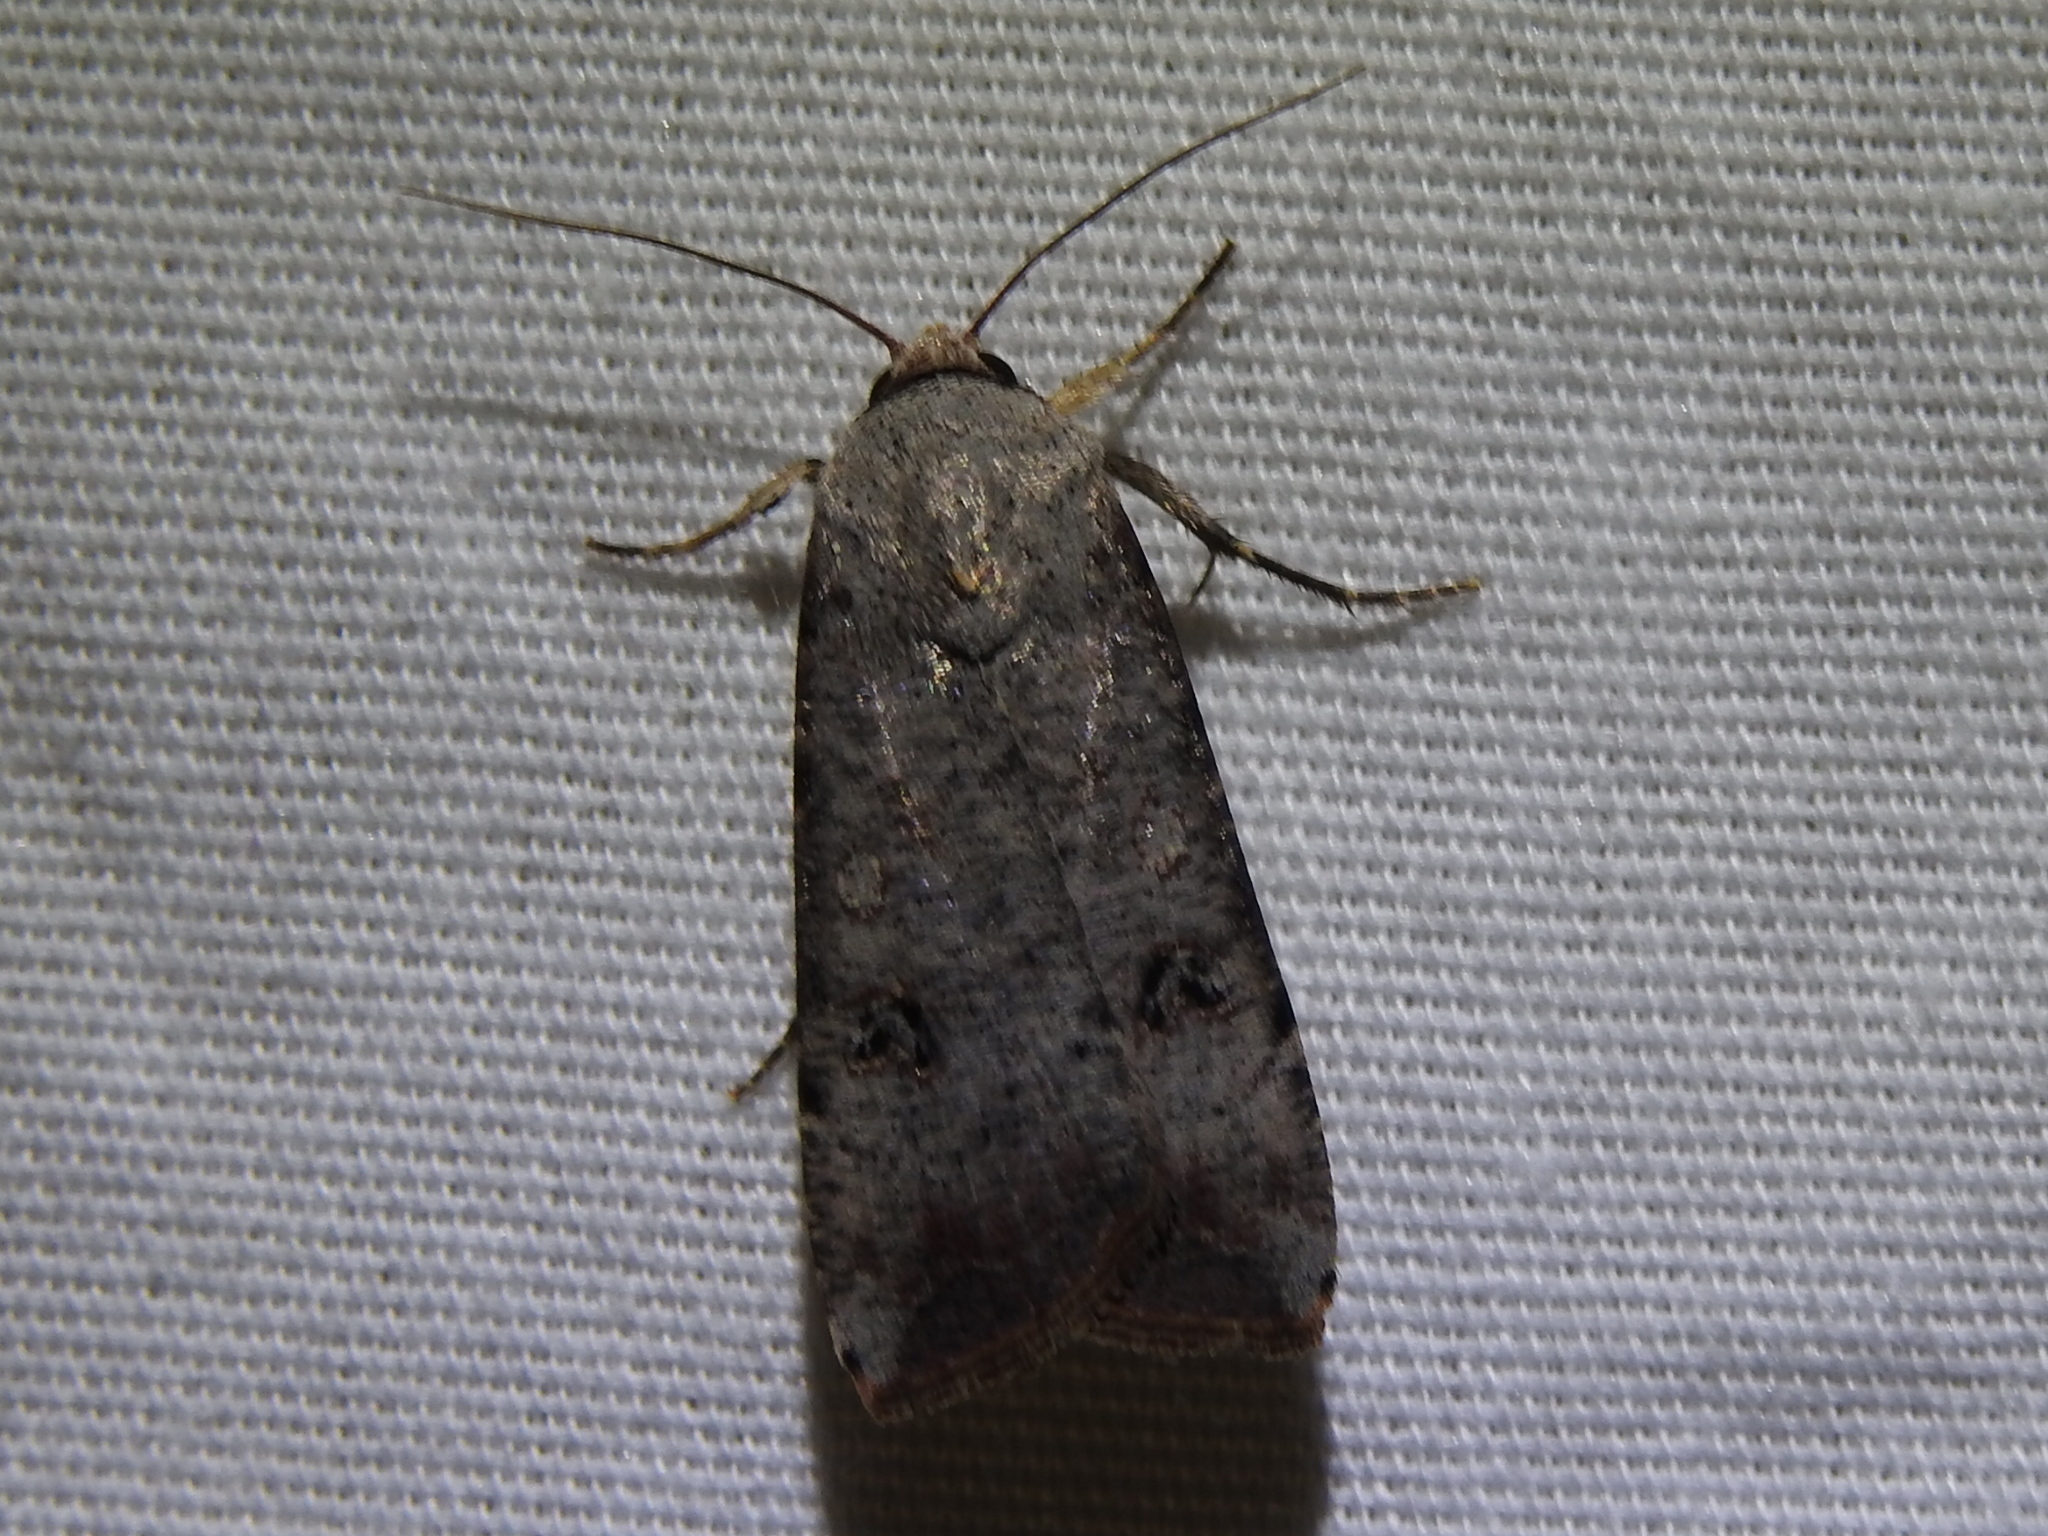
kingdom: Animalia
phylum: Arthropoda
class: Insecta
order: Lepidoptera
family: Noctuidae
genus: Anicla
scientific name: Anicla infecta
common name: Green cutworm
